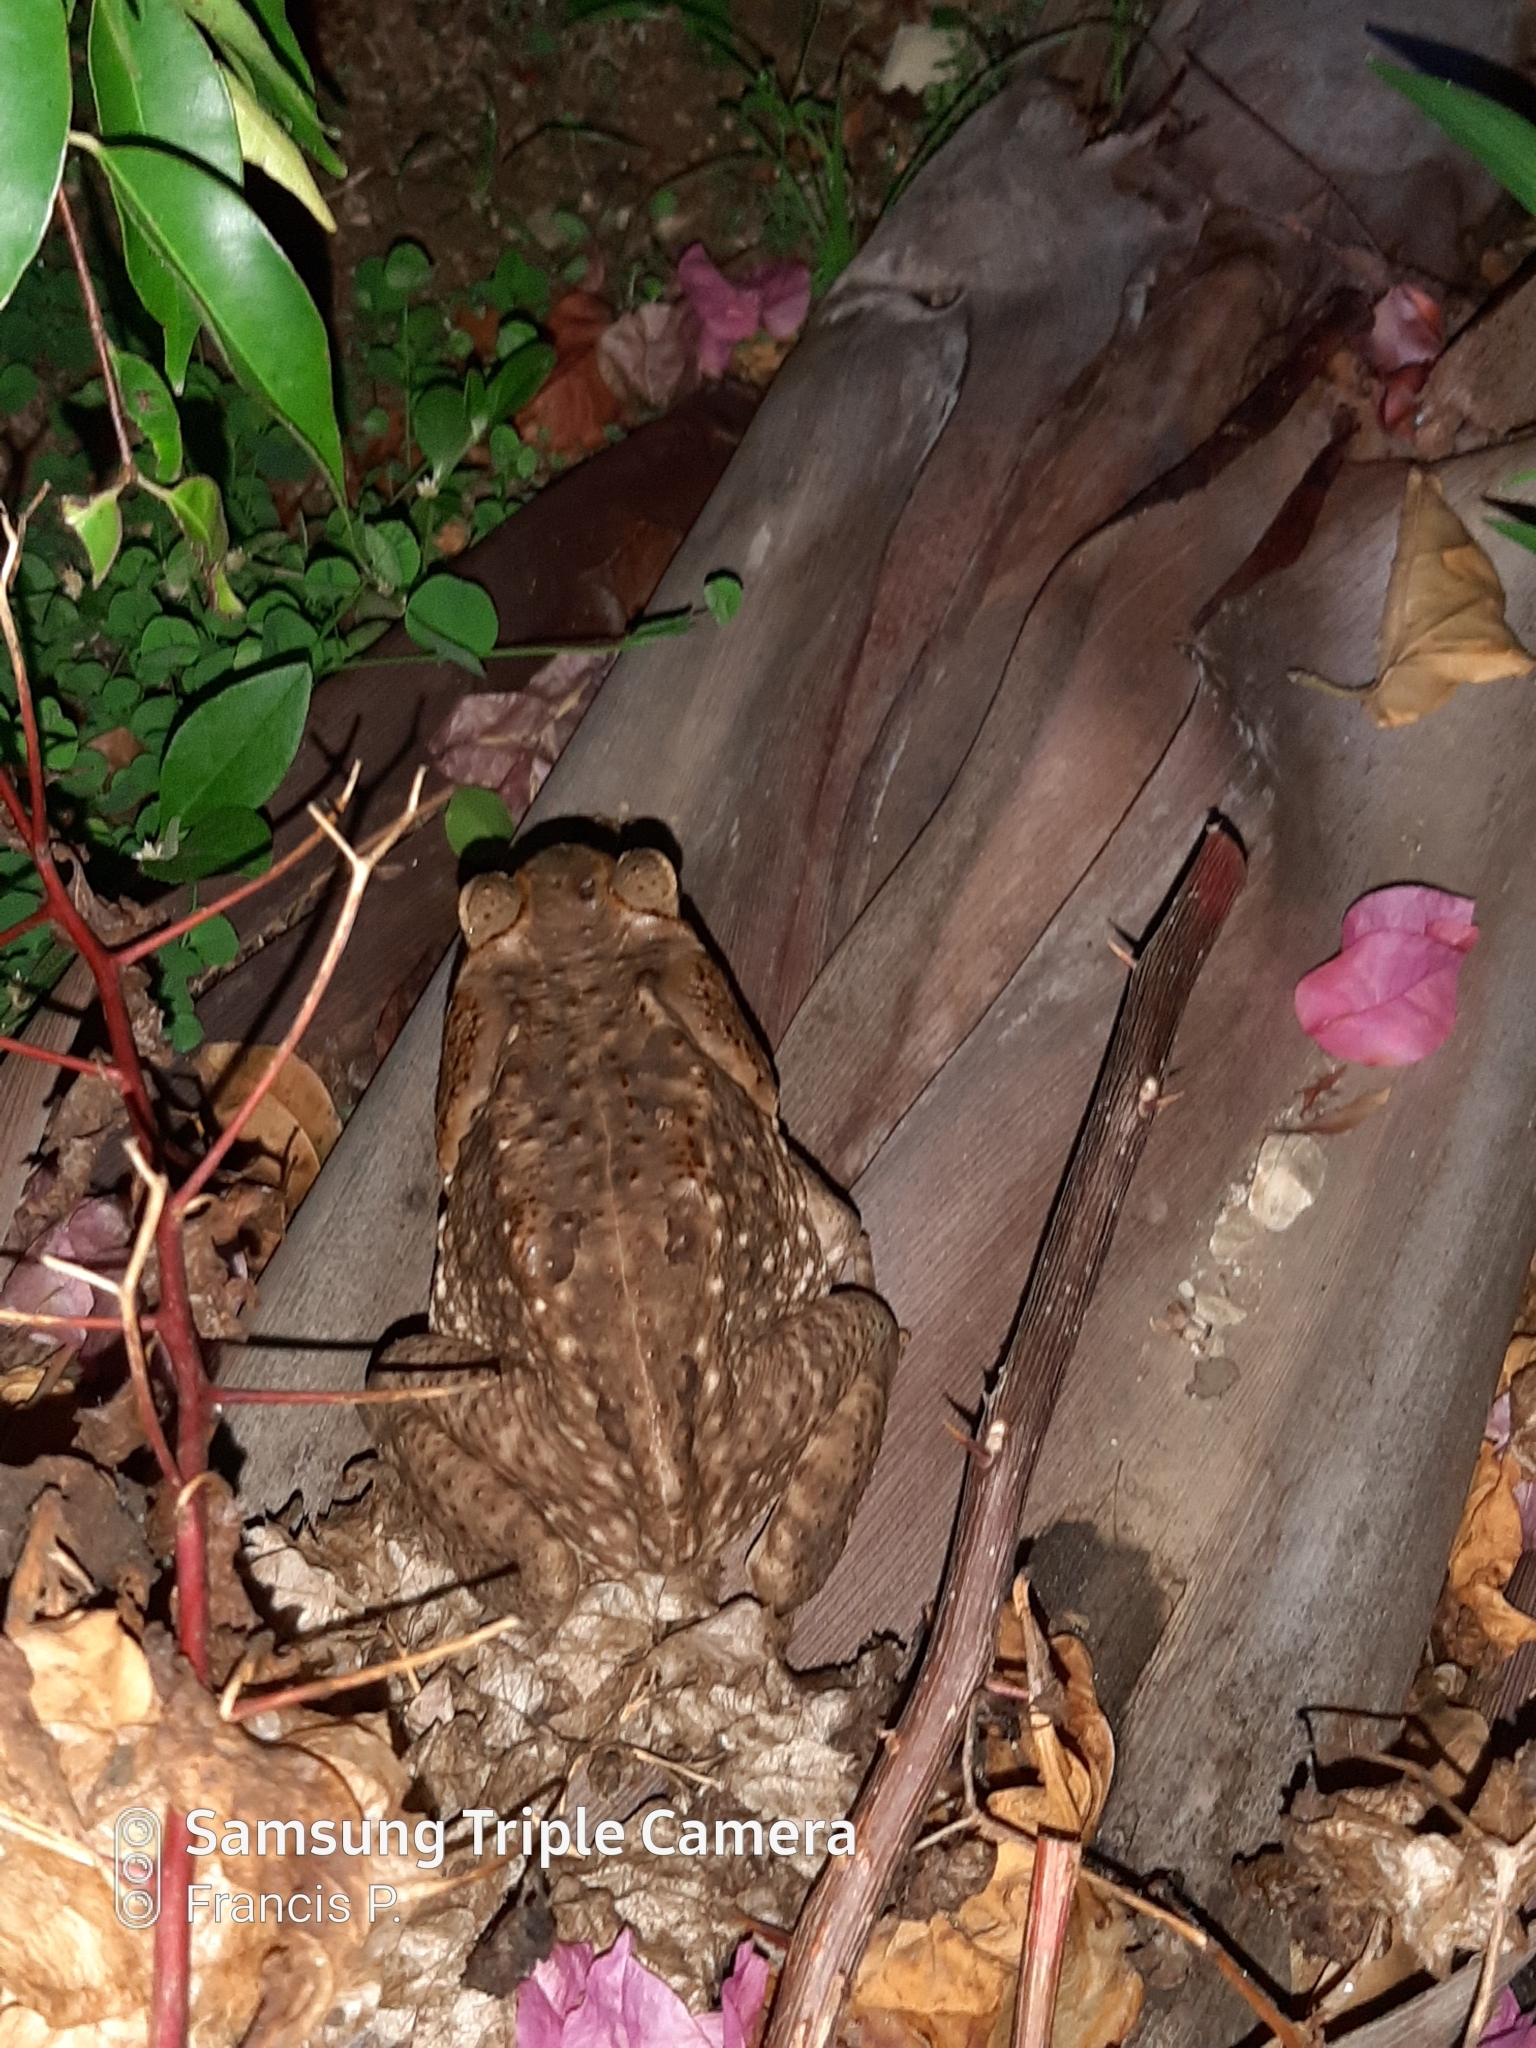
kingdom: Animalia
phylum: Chordata
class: Amphibia
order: Anura
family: Bufonidae
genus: Rhinella
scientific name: Rhinella horribilis
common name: Mesoamerican cane toad
